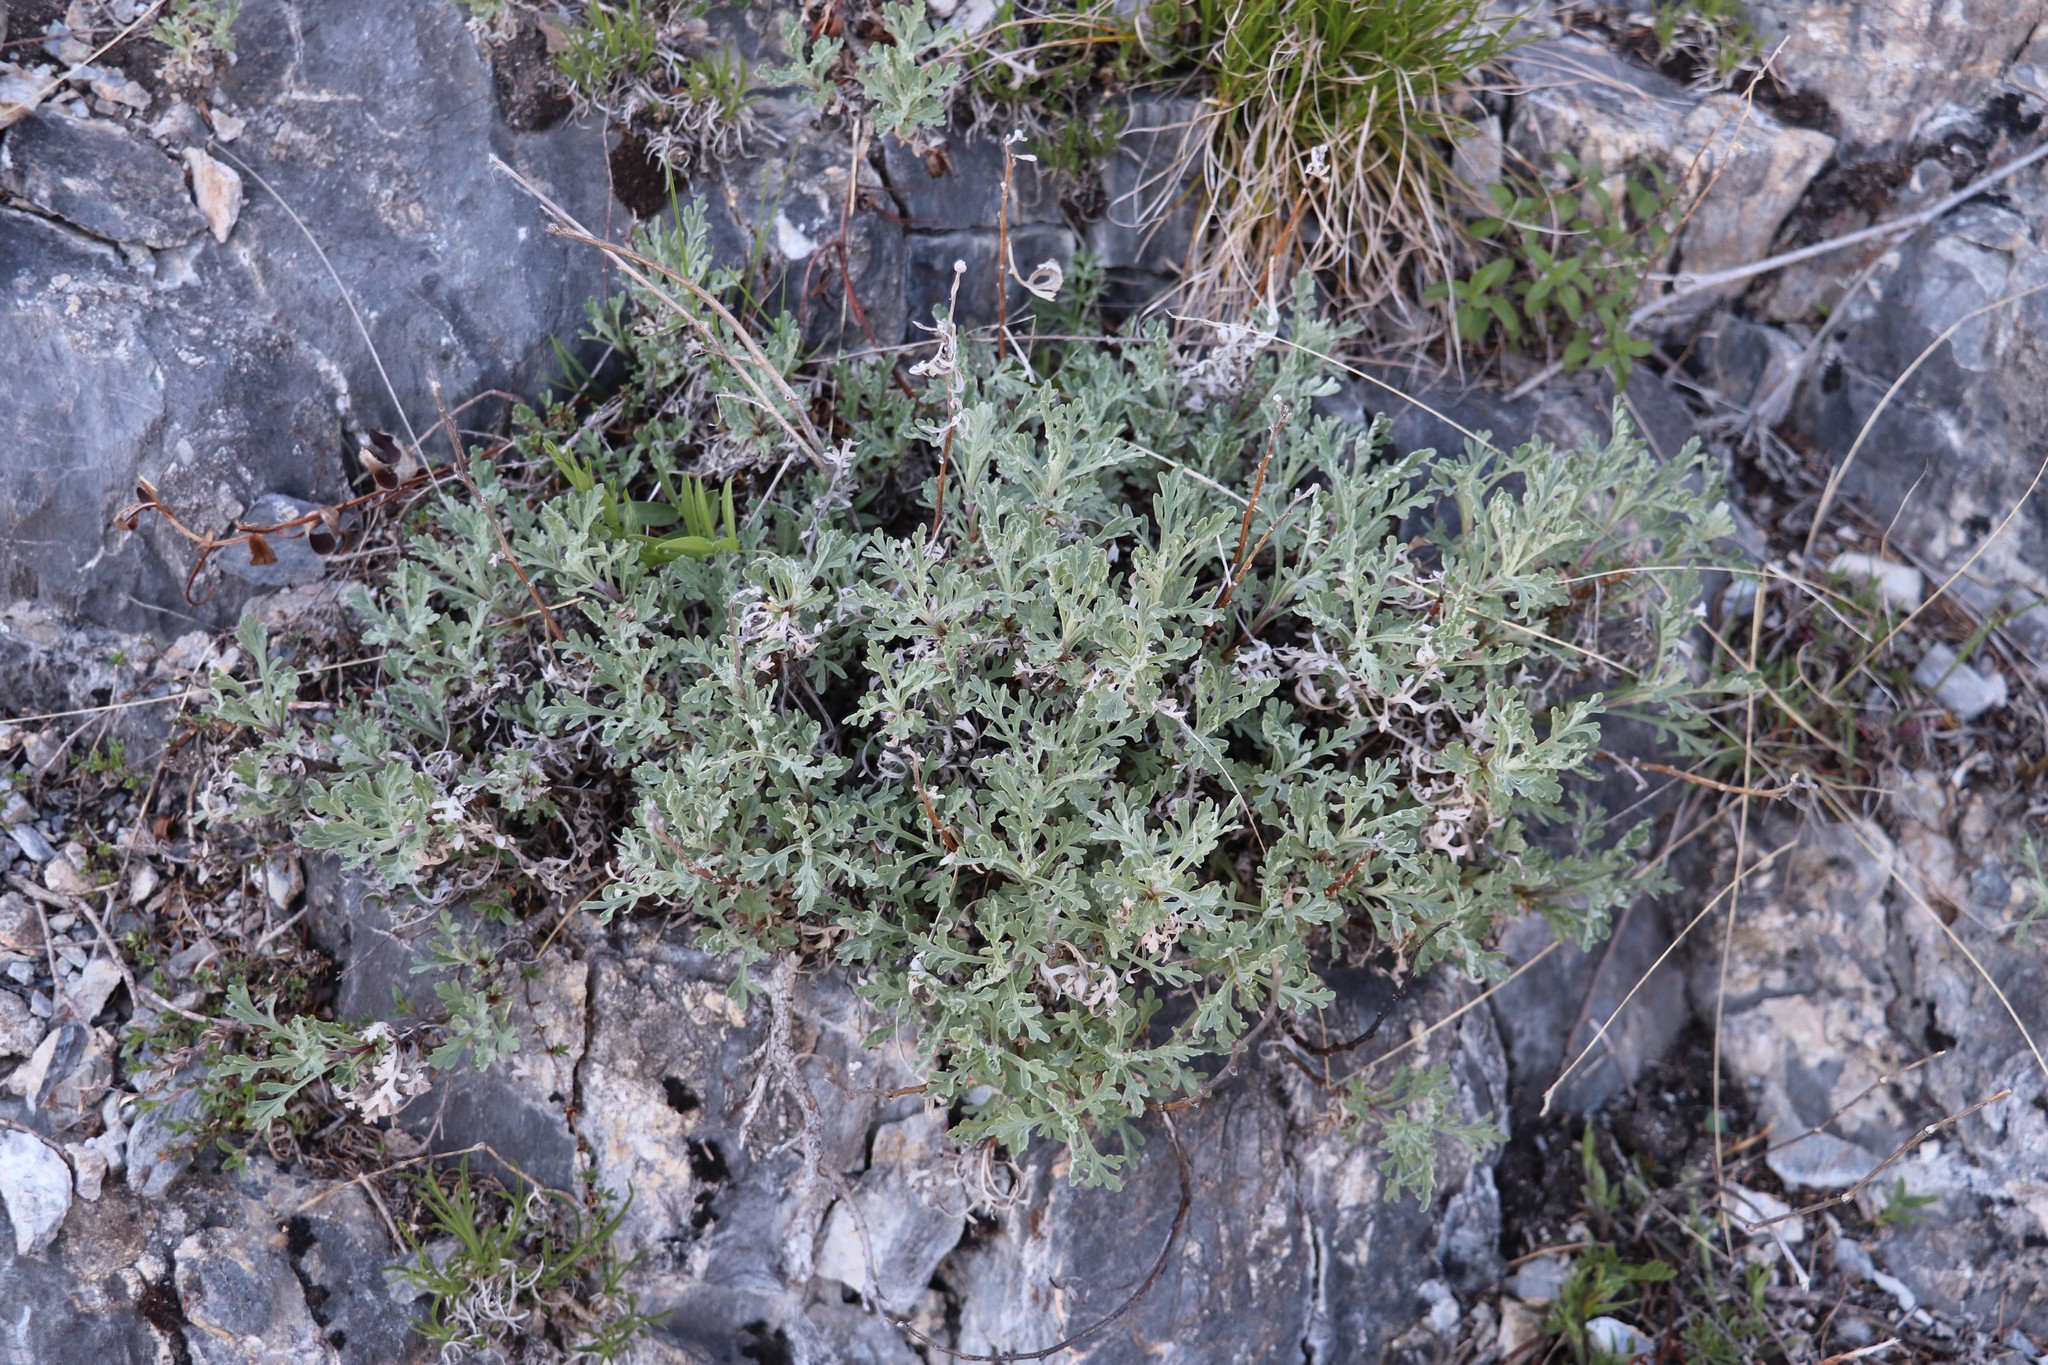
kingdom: Plantae
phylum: Tracheophyta
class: Magnoliopsida
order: Asterales
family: Asteraceae
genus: Chrysanthemum
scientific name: Chrysanthemum sinuatum
